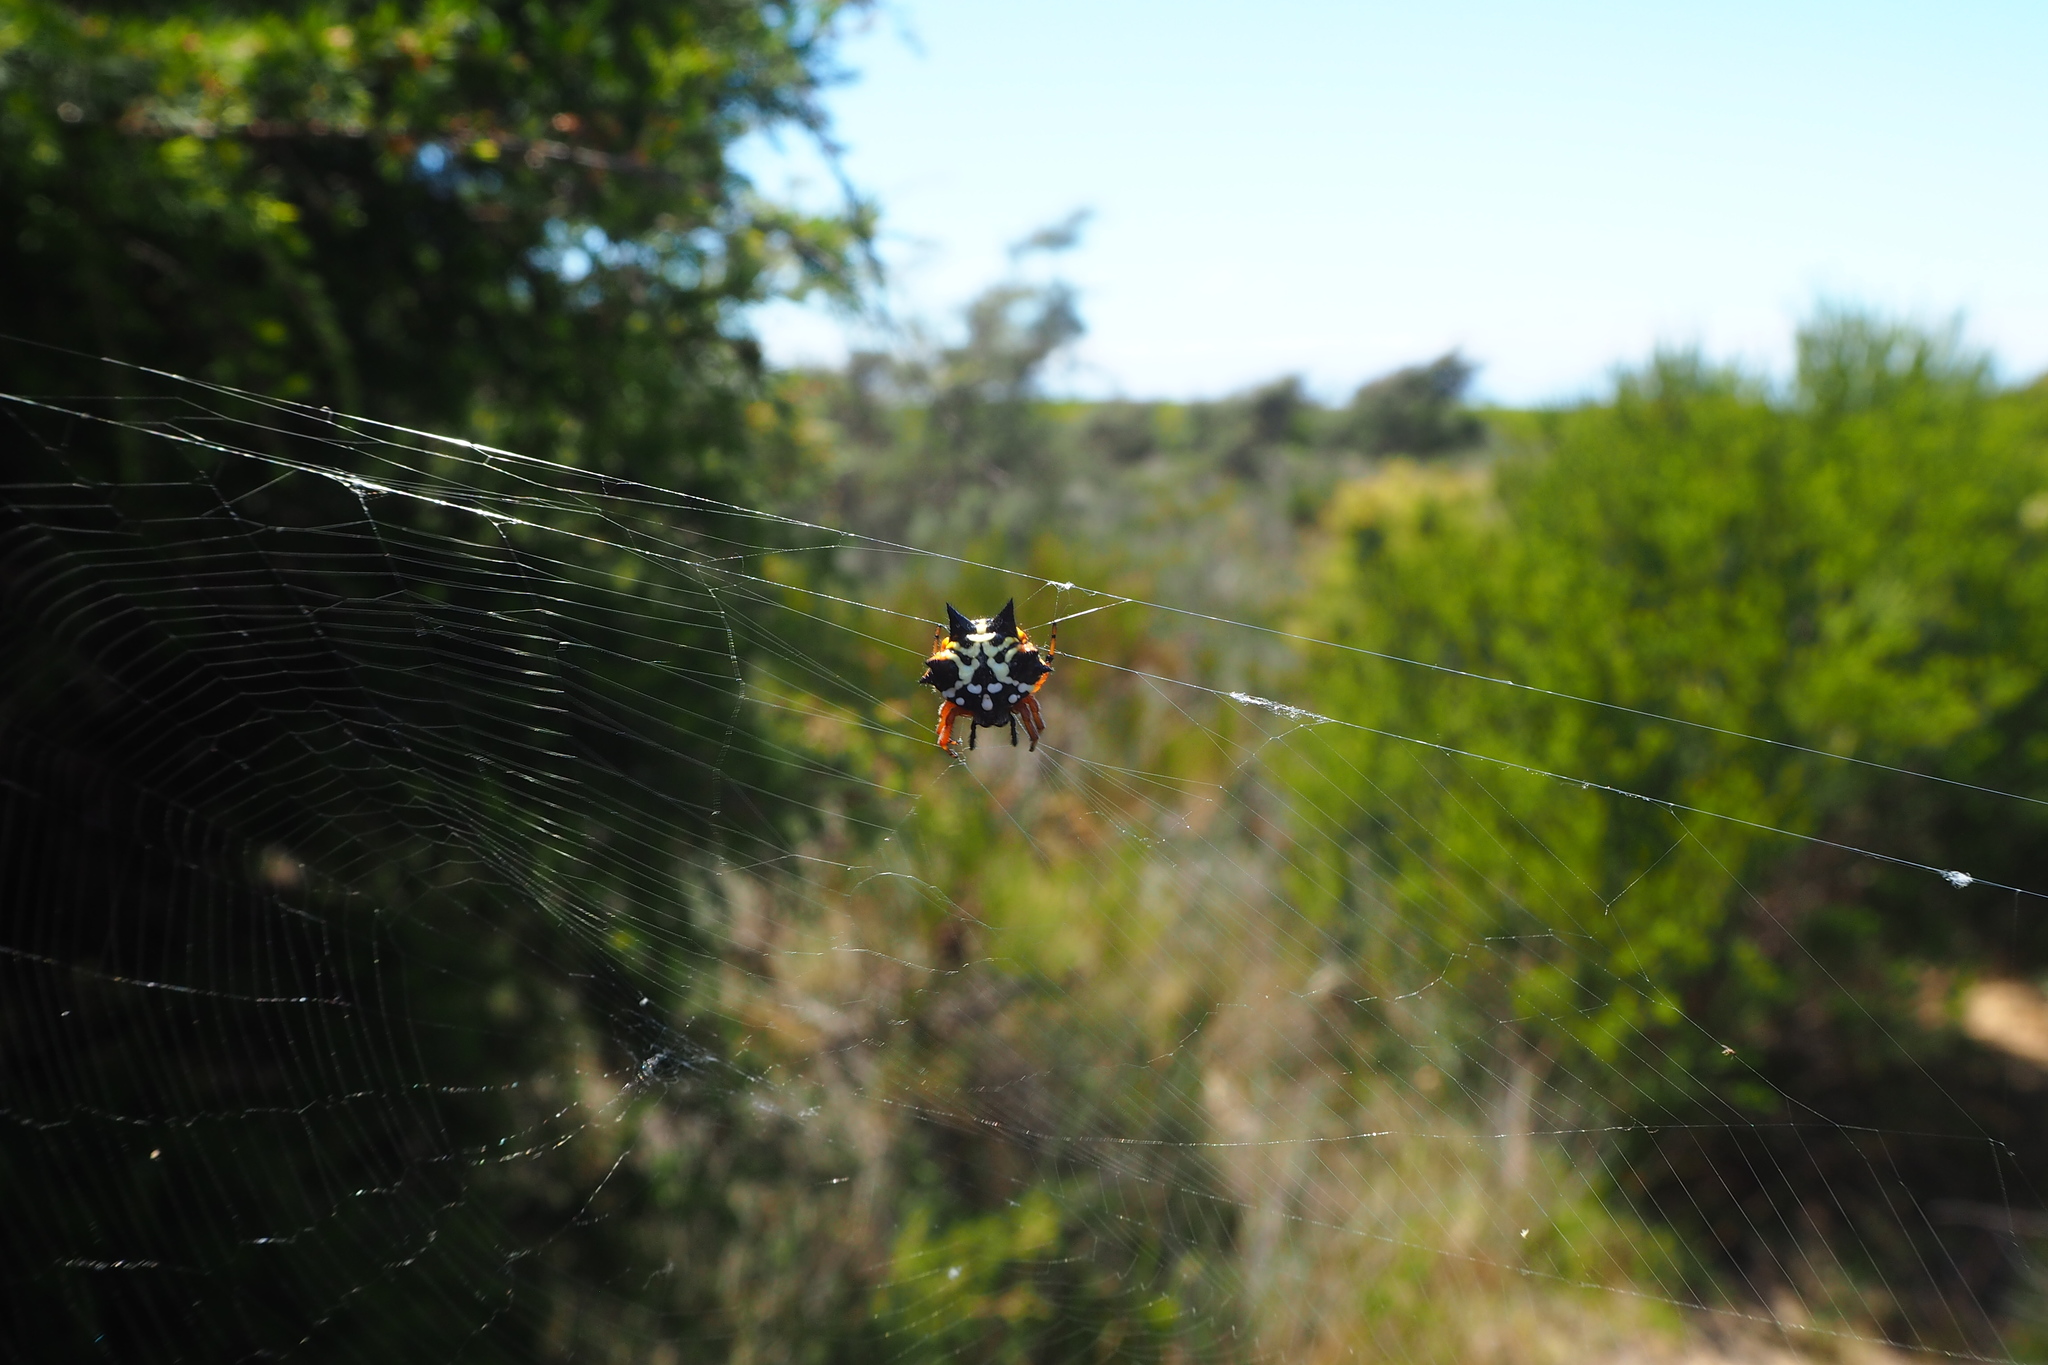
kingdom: Animalia
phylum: Arthropoda
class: Arachnida
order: Araneae
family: Araneidae
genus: Austracantha
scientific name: Austracantha minax
